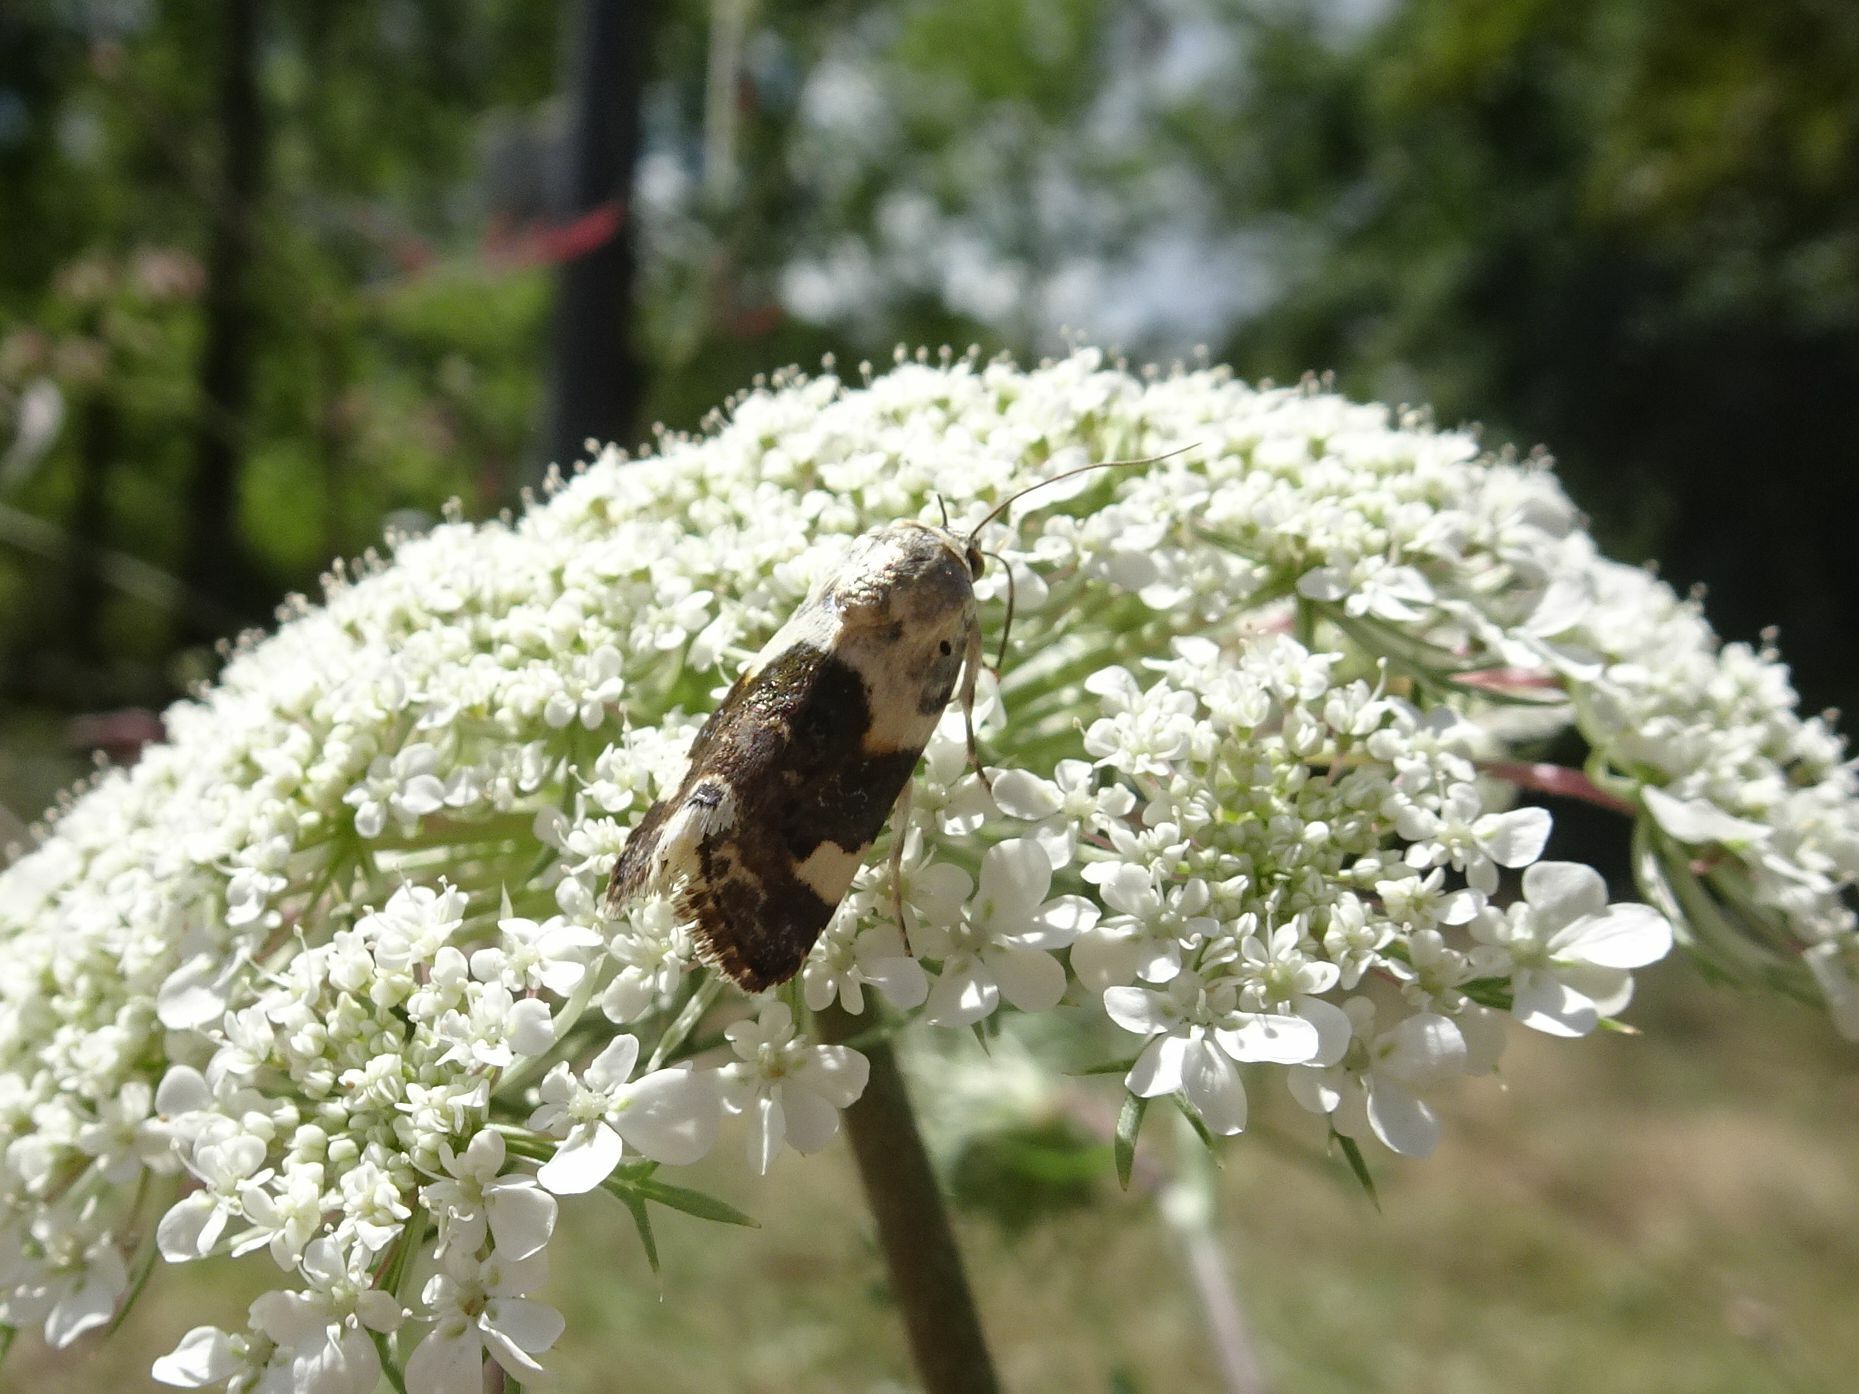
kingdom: Animalia
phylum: Arthropoda
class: Insecta
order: Lepidoptera
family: Noctuidae
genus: Acontia
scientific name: Acontia lucida
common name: Pale shoulder
